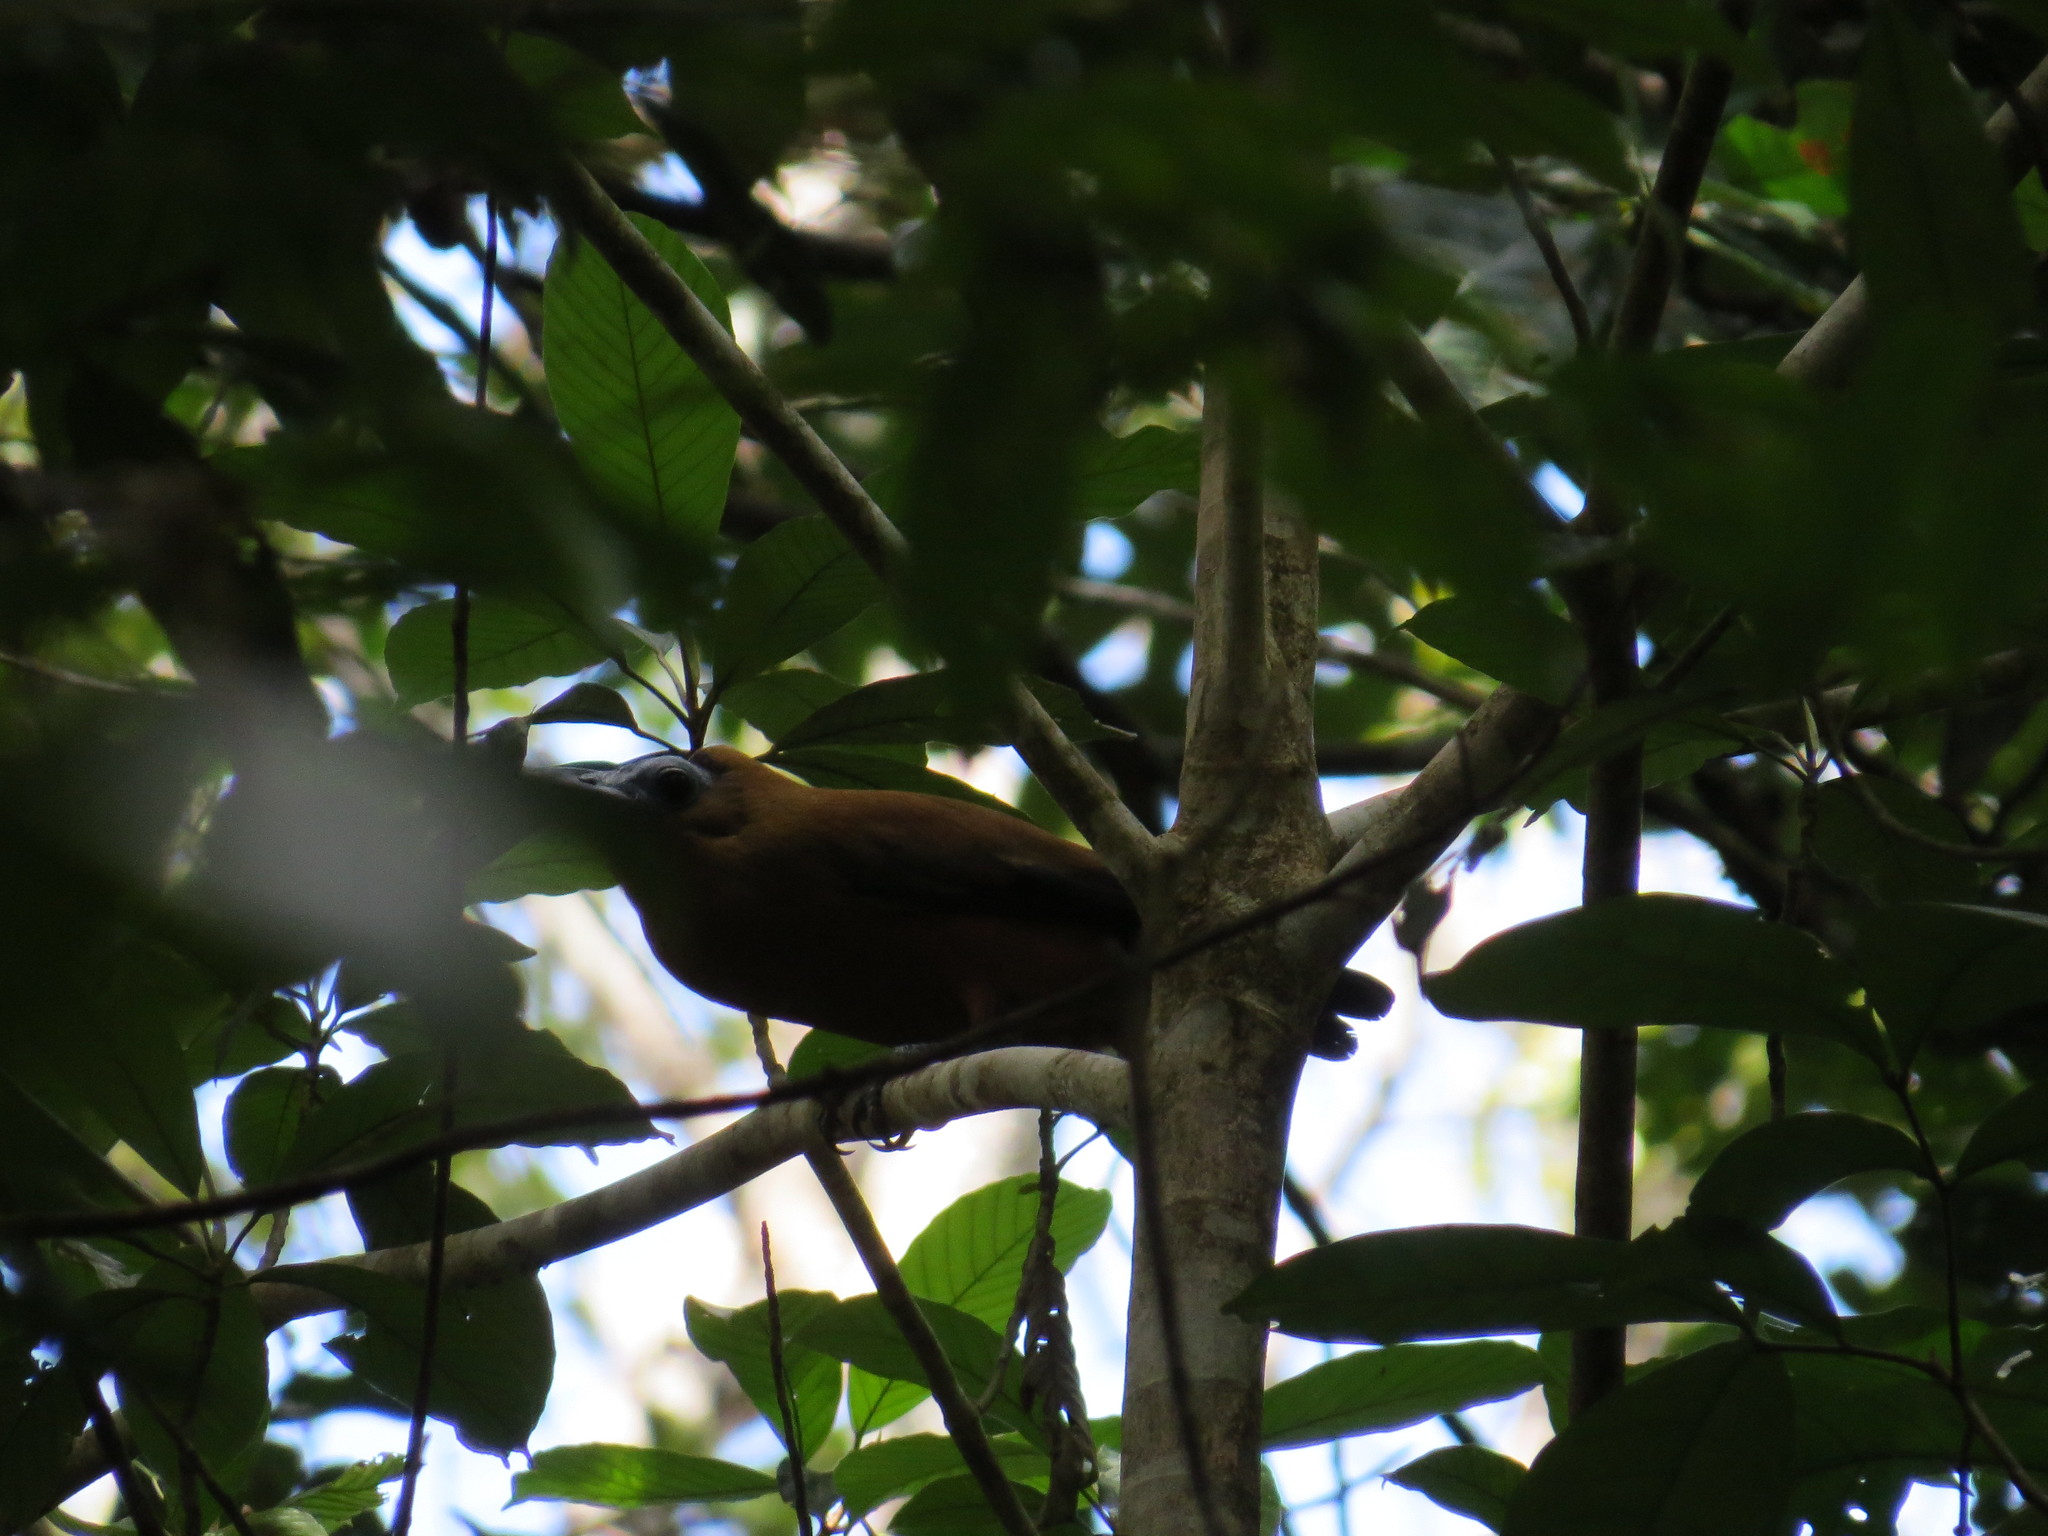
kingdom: Animalia
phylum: Chordata
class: Aves
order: Passeriformes
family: Cotingidae
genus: Perissocephalus
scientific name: Perissocephalus tricolor
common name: Capuchinbird
